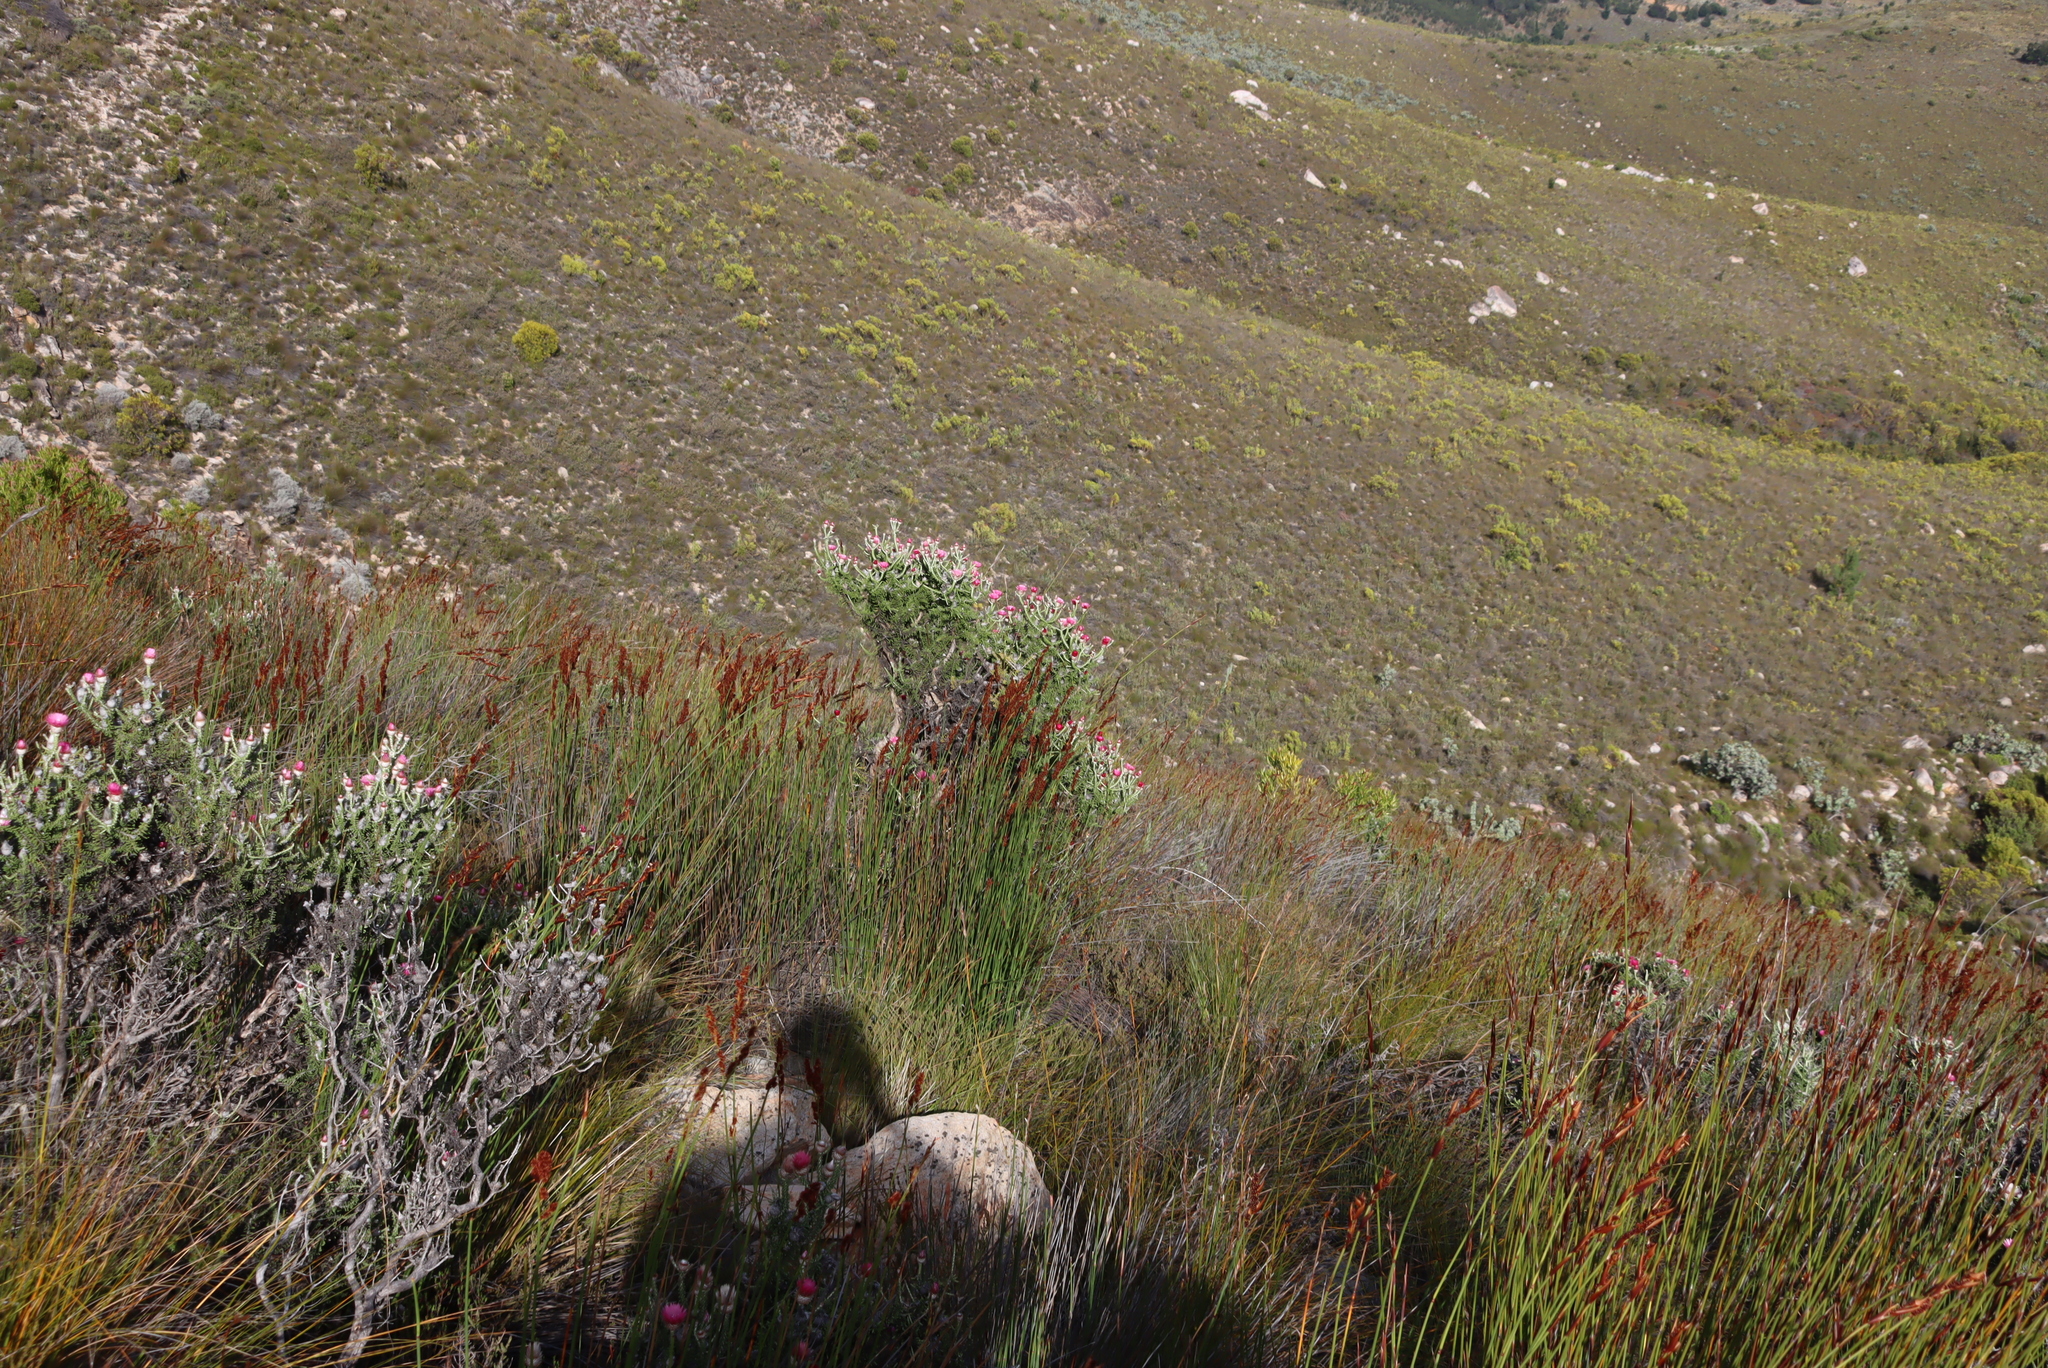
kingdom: Plantae
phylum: Tracheophyta
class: Magnoliopsida
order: Asterales
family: Asteraceae
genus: Phaenocoma
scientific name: Phaenocoma prolifera
